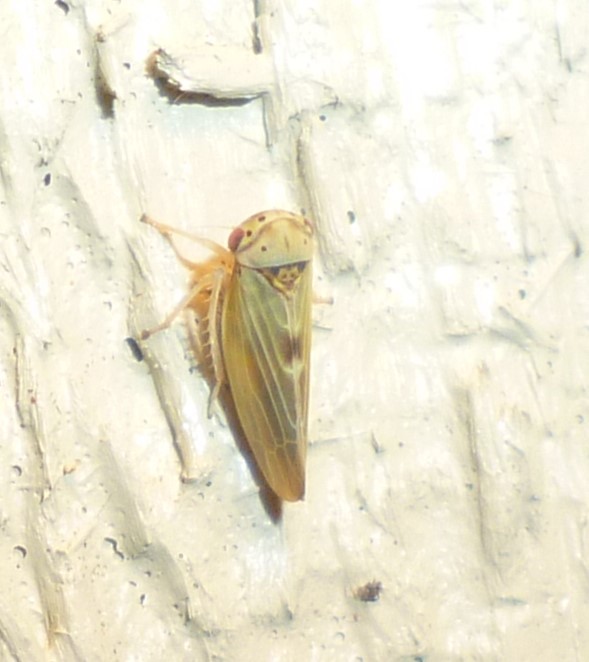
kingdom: Animalia
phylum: Arthropoda
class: Insecta
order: Hemiptera
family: Cicadellidae
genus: Agalliopsis
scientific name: Agalliopsis ancistra
